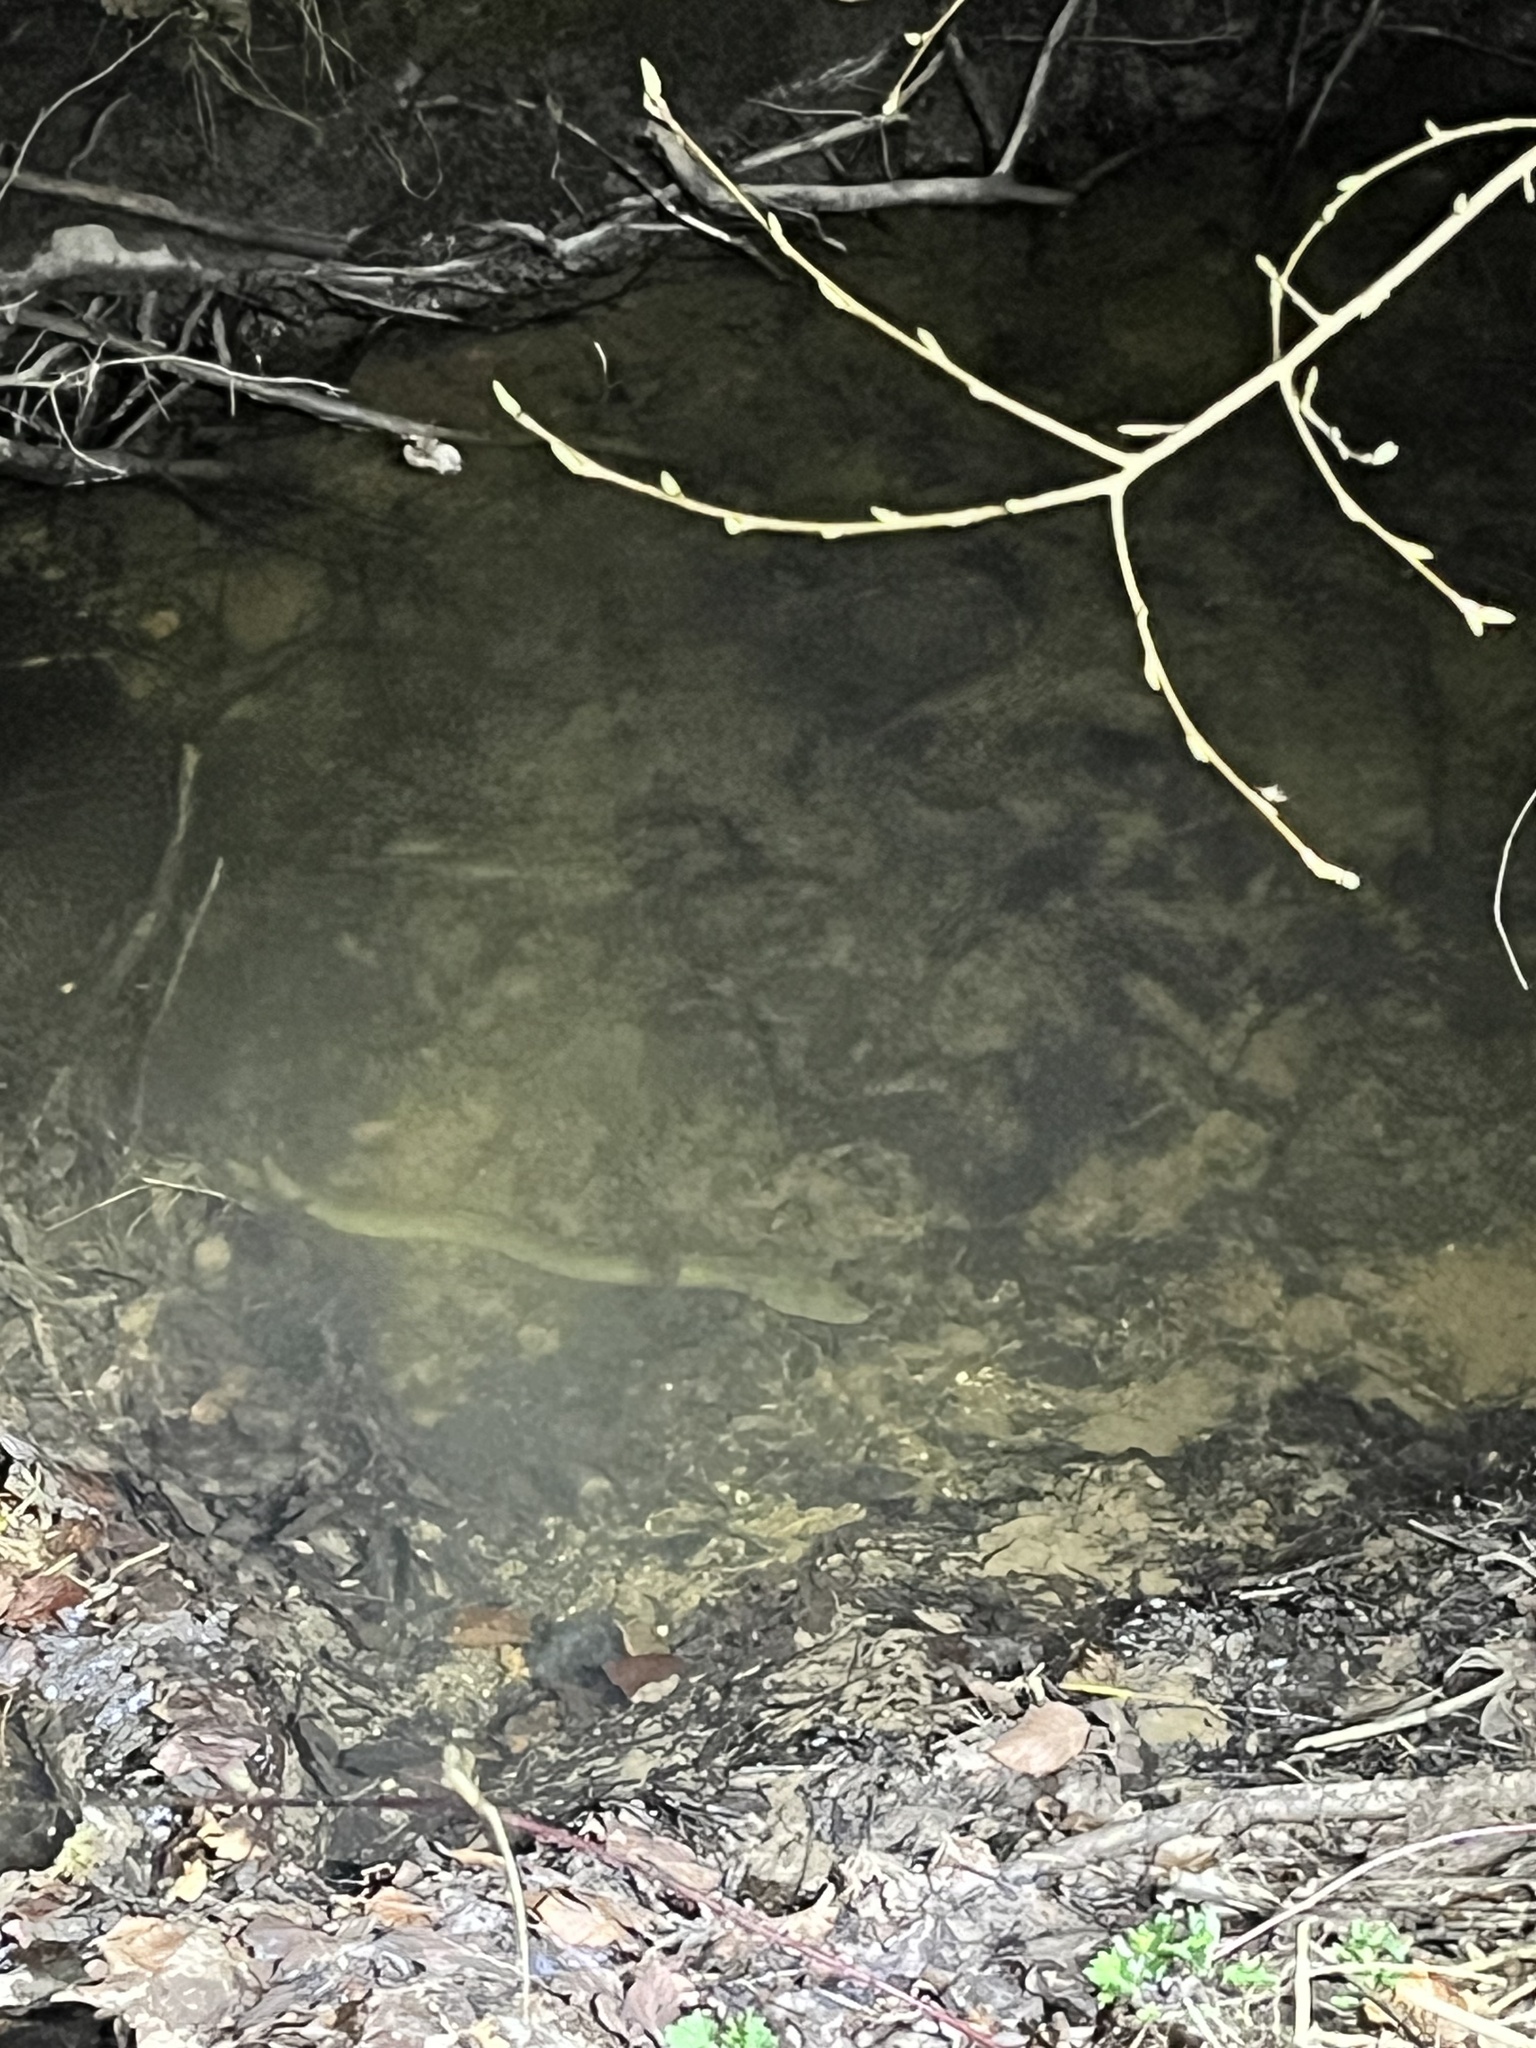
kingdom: Animalia
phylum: Chordata
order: Anguilliformes
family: Anguillidae
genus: Anguilla
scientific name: Anguilla anguilla
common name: European eel
